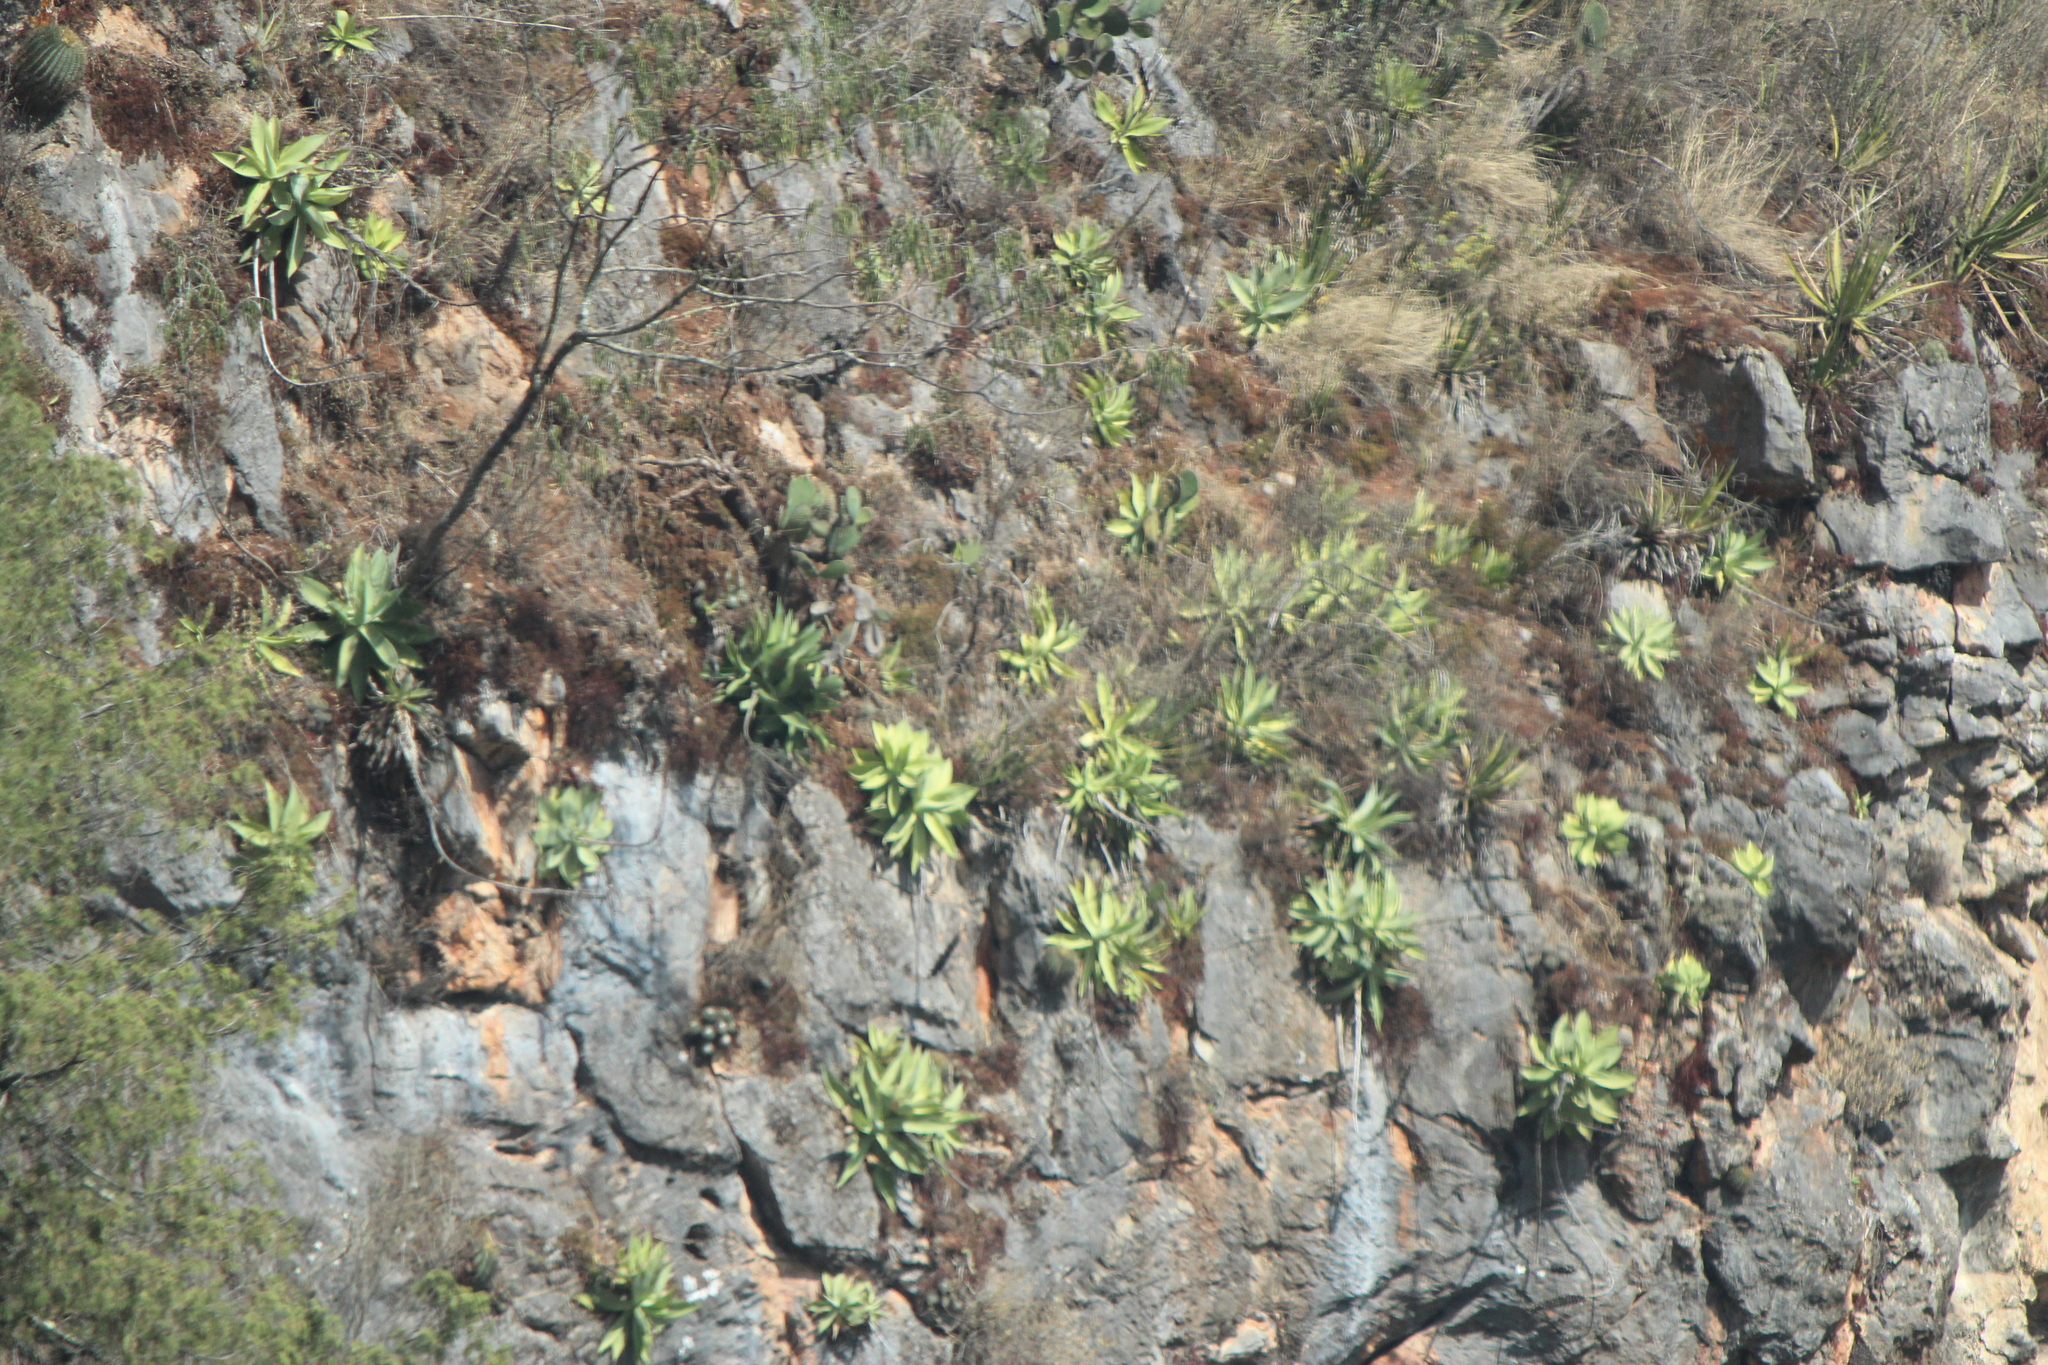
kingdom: Plantae
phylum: Tracheophyta
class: Liliopsida
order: Asparagales
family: Asparagaceae
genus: Agave
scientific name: Agave mitis
